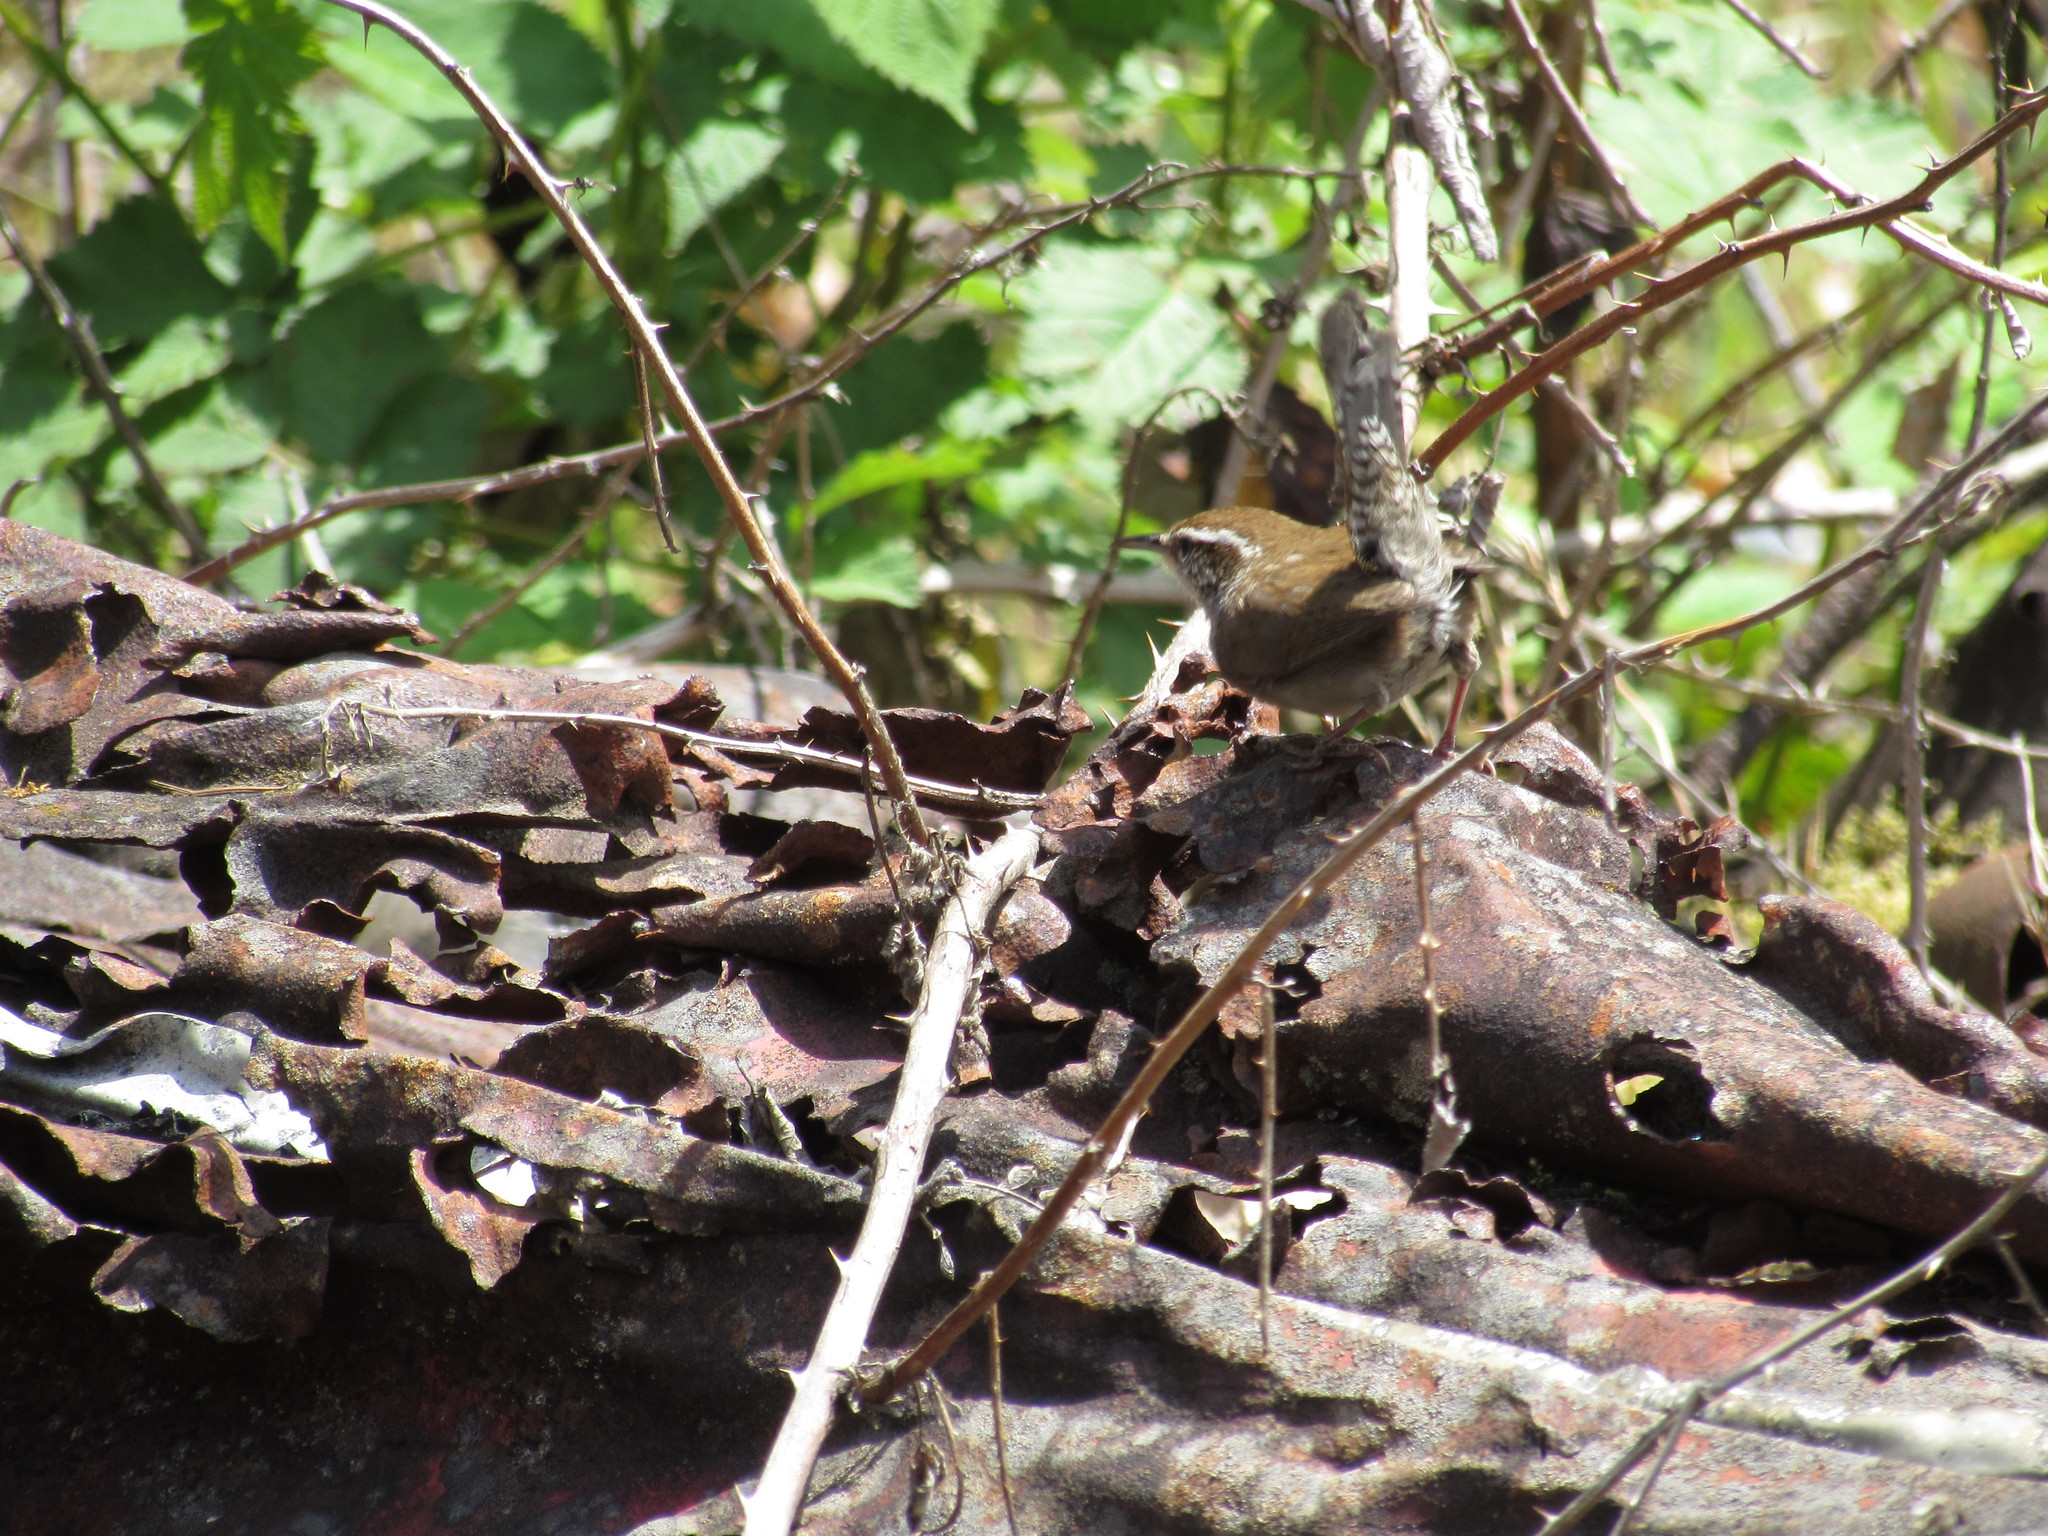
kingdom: Animalia
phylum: Chordata
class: Aves
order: Passeriformes
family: Troglodytidae
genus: Thryomanes
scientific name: Thryomanes bewickii
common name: Bewick's wren
